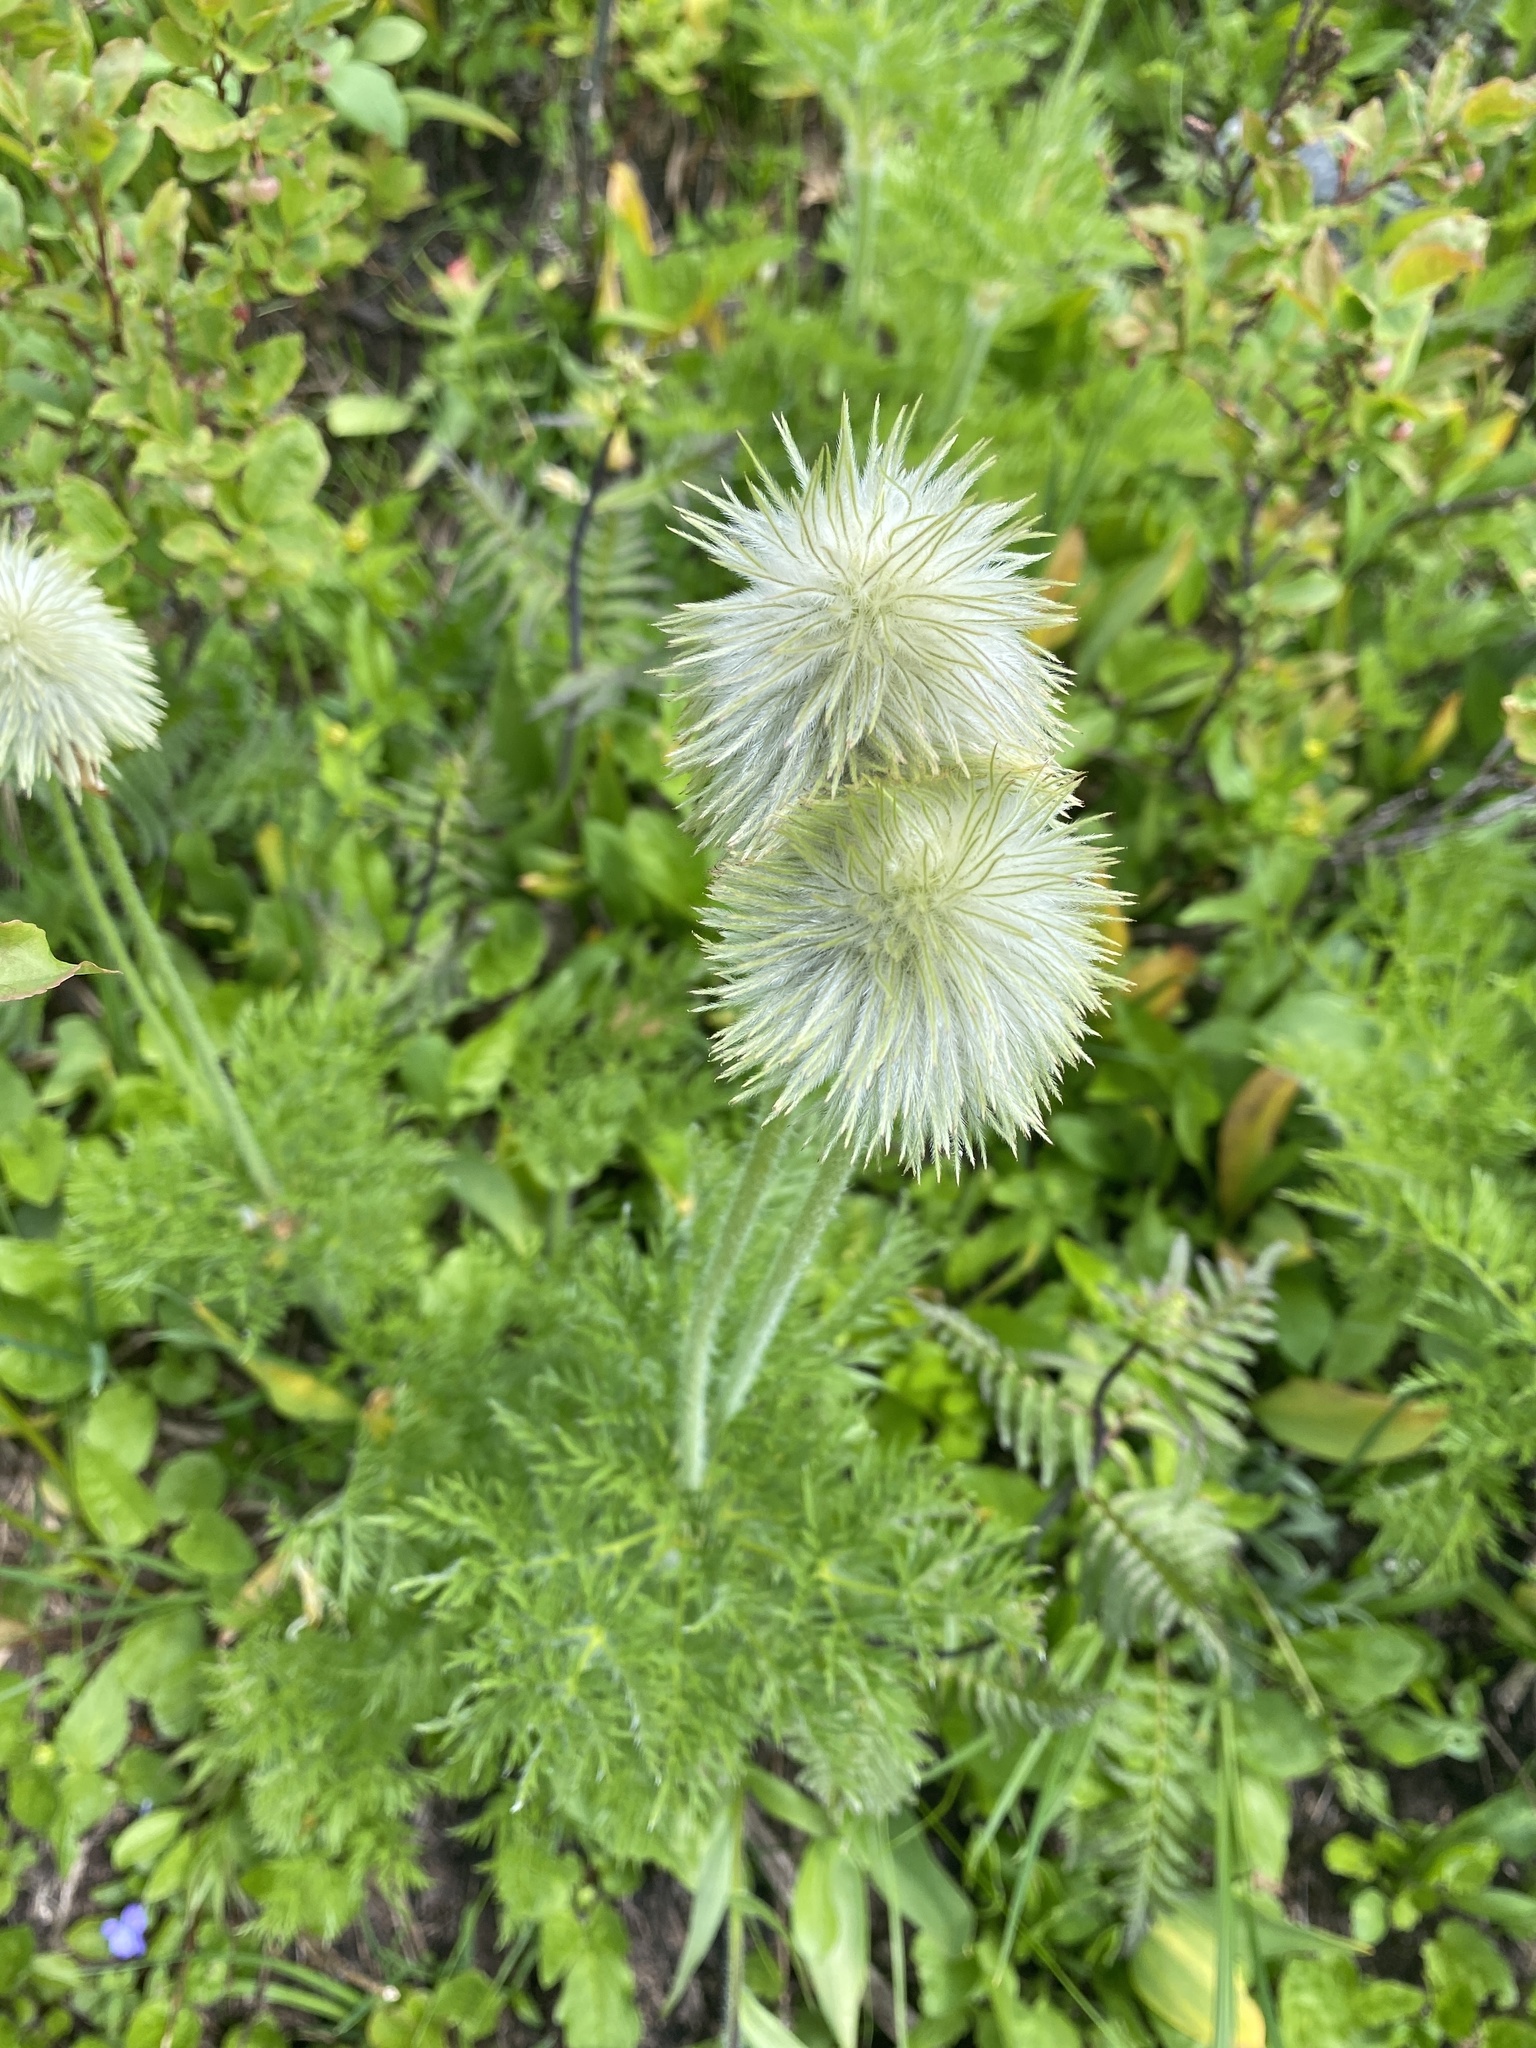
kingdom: Plantae
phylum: Tracheophyta
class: Magnoliopsida
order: Ranunculales
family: Ranunculaceae
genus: Pulsatilla
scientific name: Pulsatilla occidentalis
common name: Mountain pasqueflower
